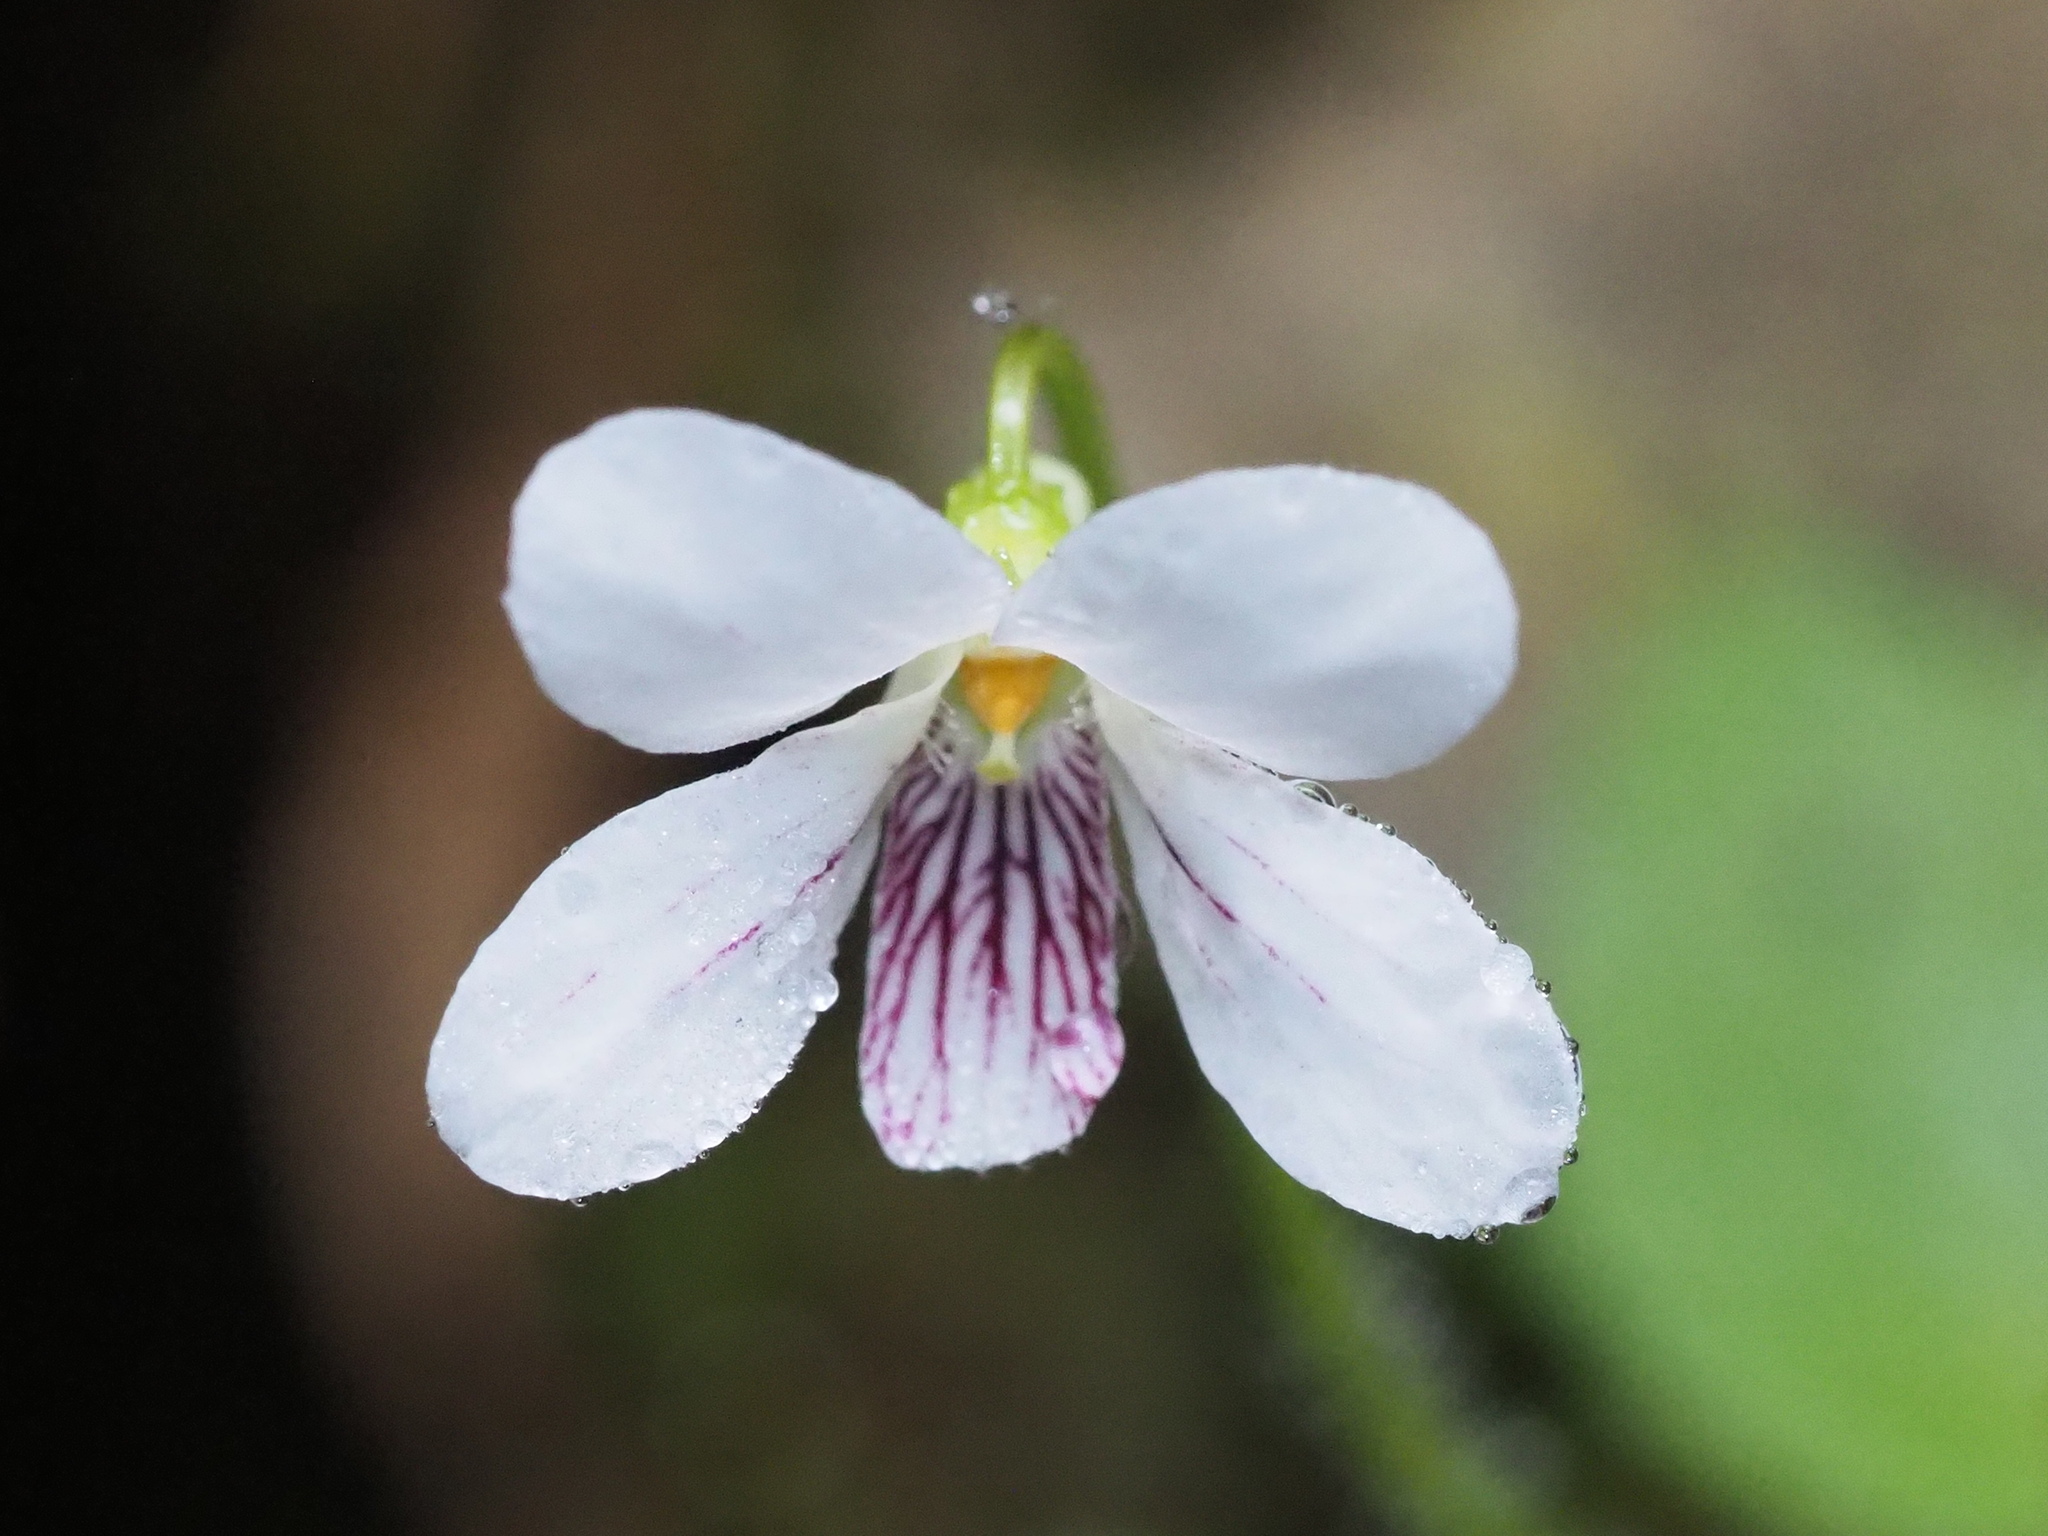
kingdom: Plantae
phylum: Tracheophyta
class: Magnoliopsida
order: Malpighiales
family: Violaceae
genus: Viola
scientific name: Viola adenothrix
